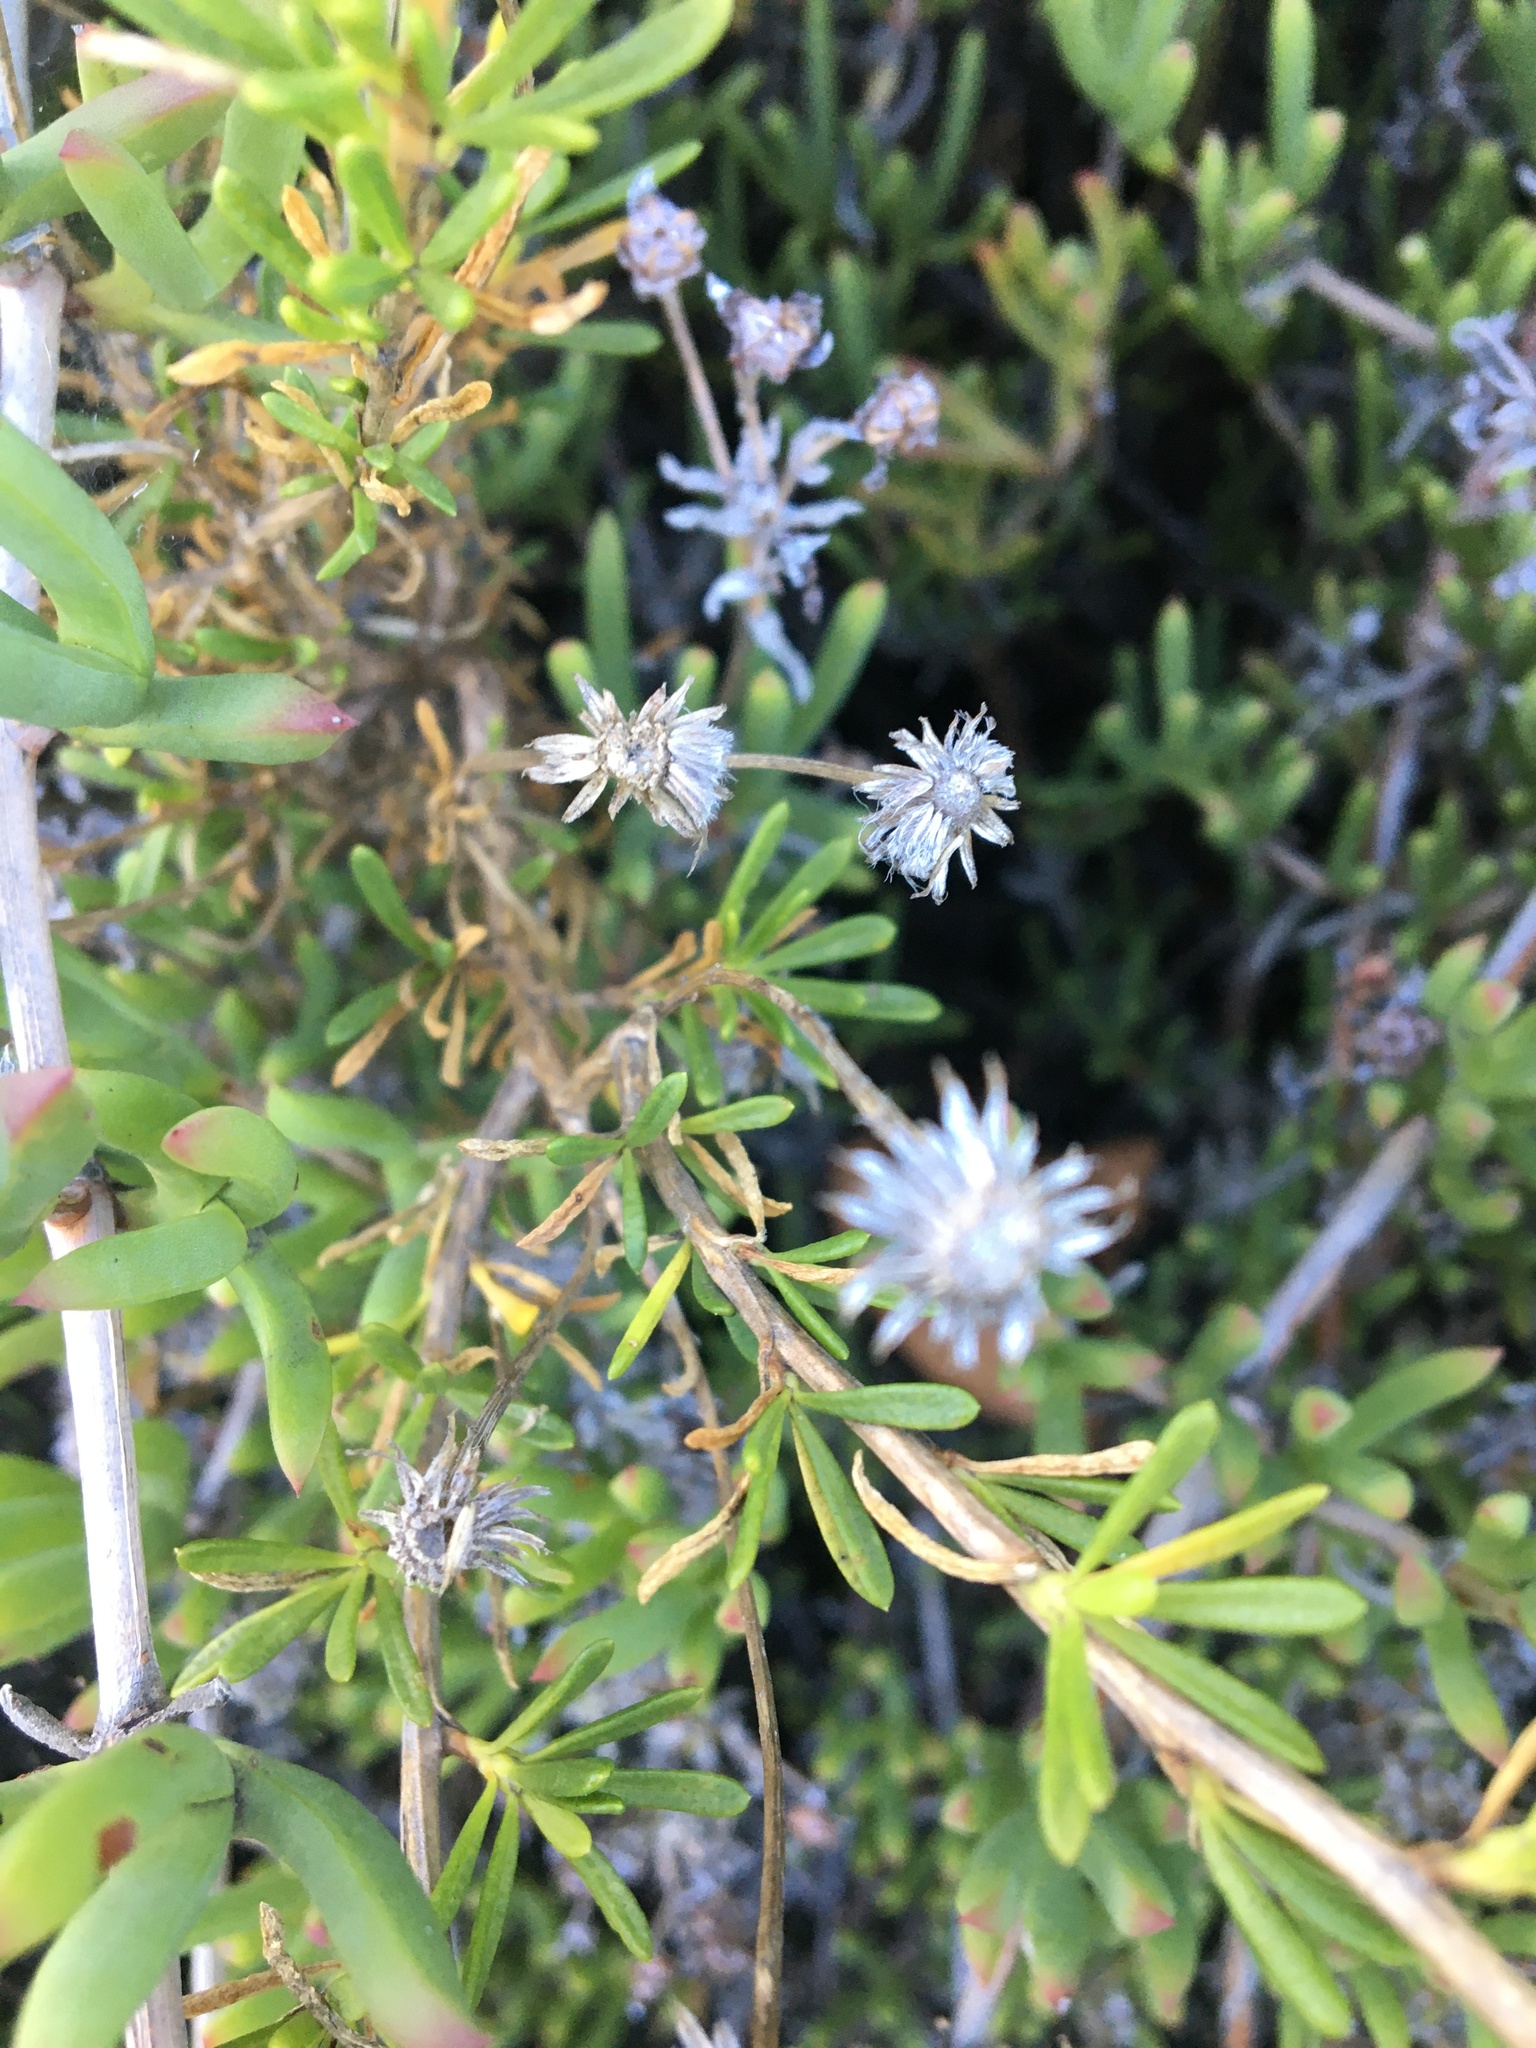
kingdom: Plantae
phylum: Tracheophyta
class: Magnoliopsida
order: Asterales
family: Asteraceae
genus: Felicia
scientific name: Felicia fruticosa
